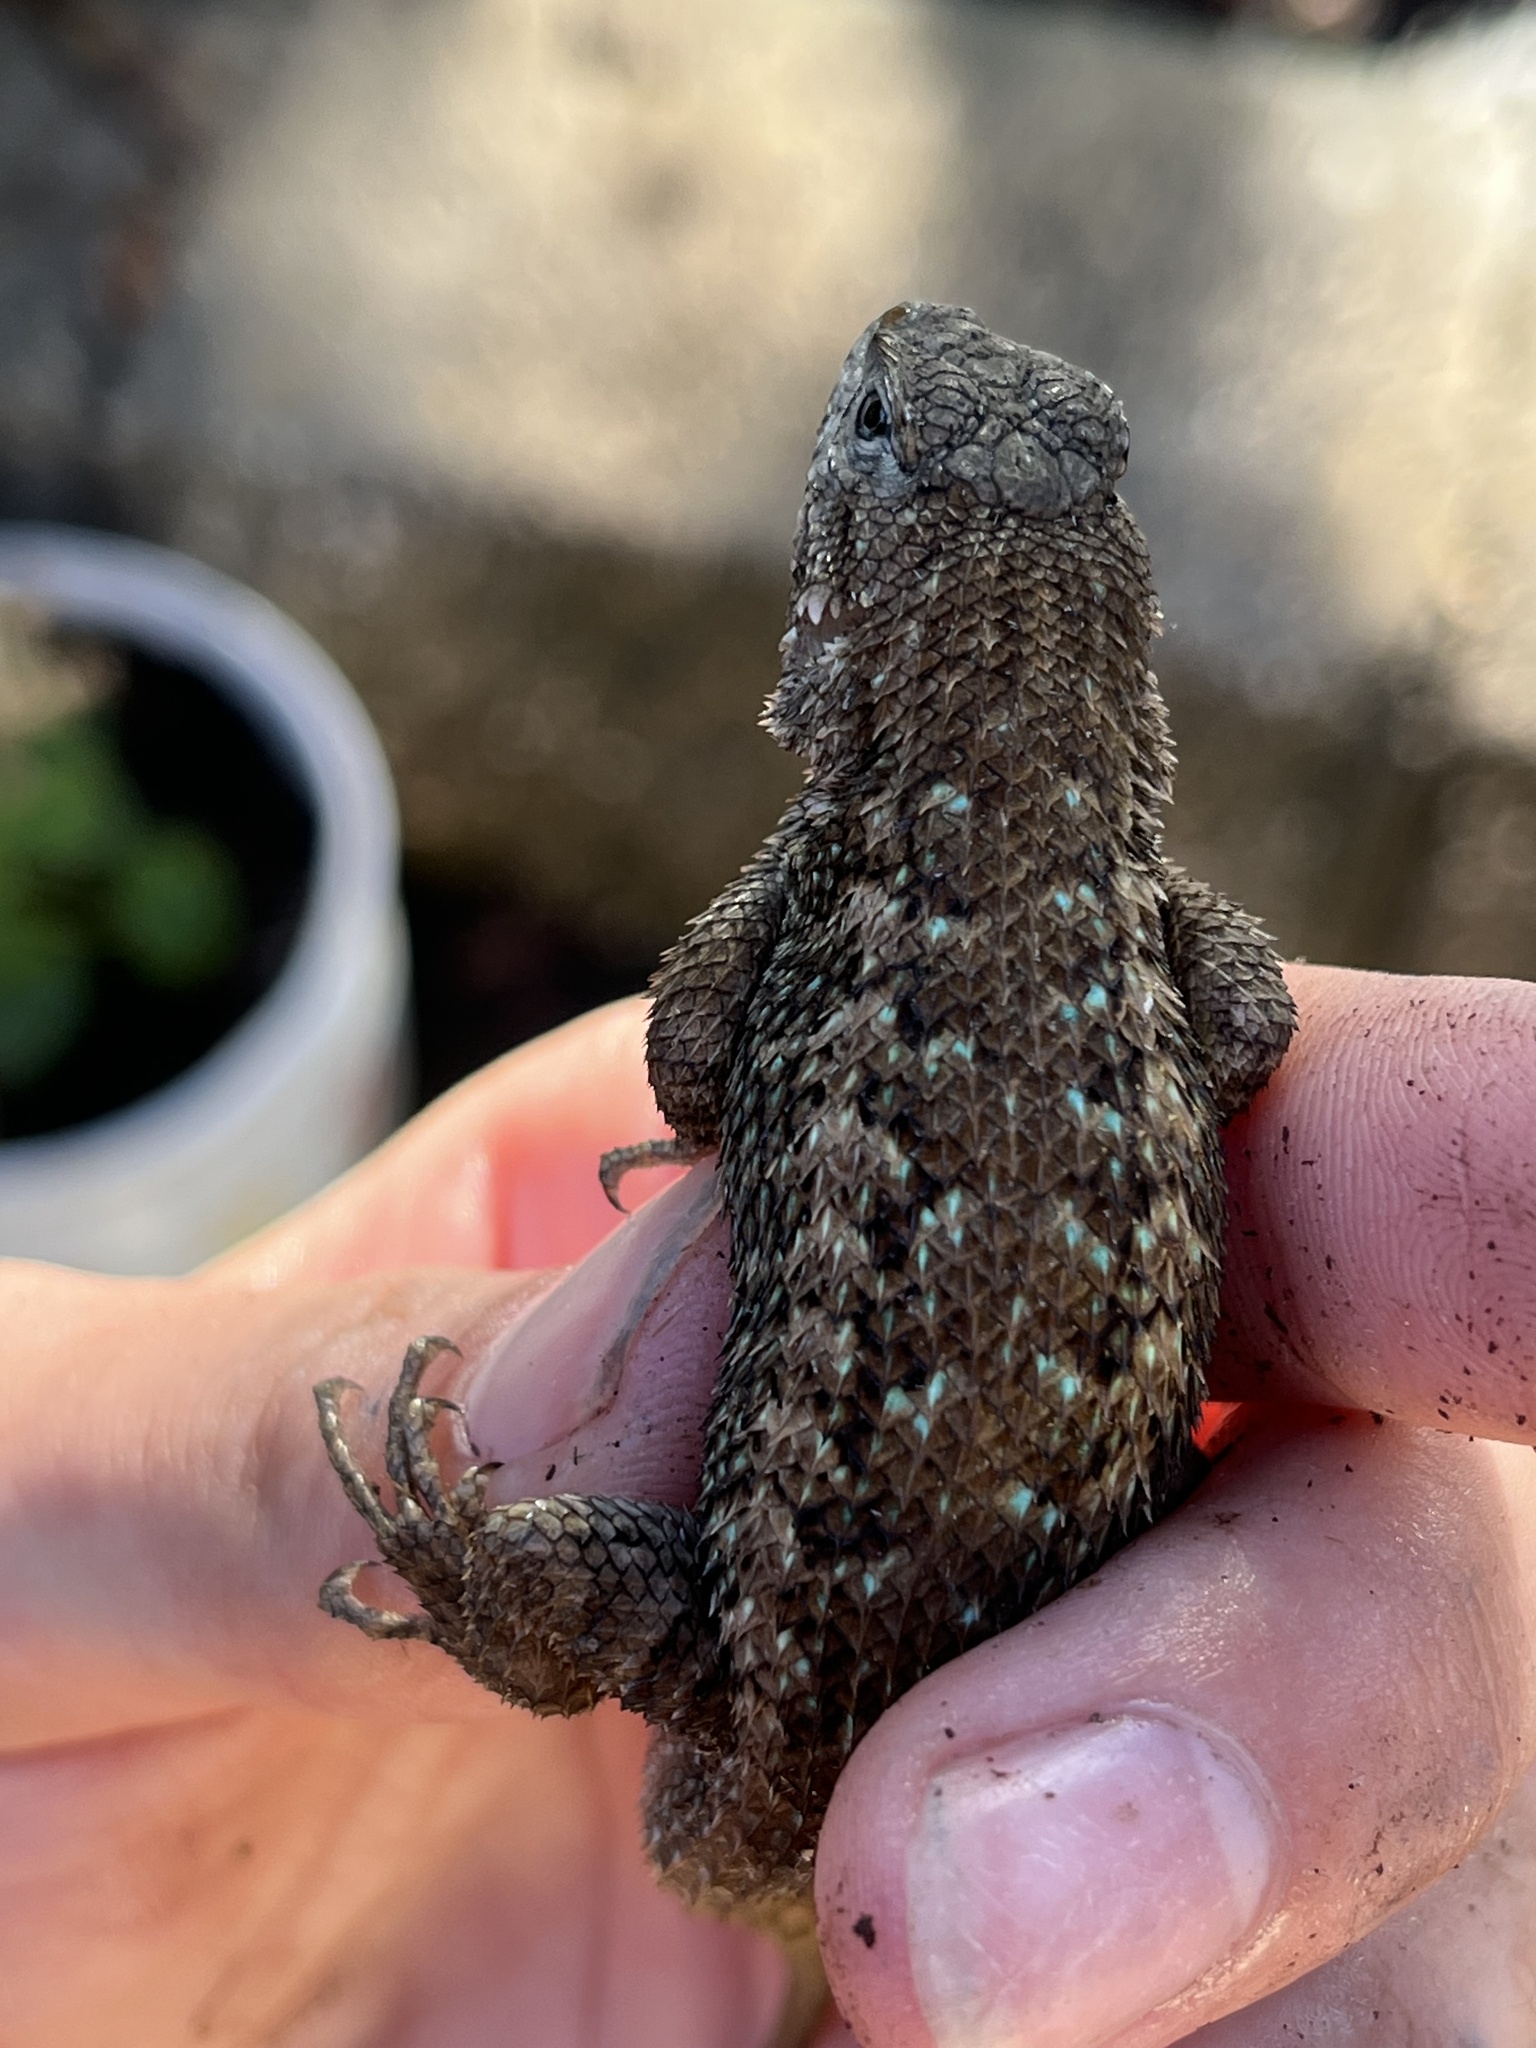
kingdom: Animalia
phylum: Chordata
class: Squamata
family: Phrynosomatidae
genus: Sceloporus
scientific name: Sceloporus occidentalis
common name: Western fence lizard
